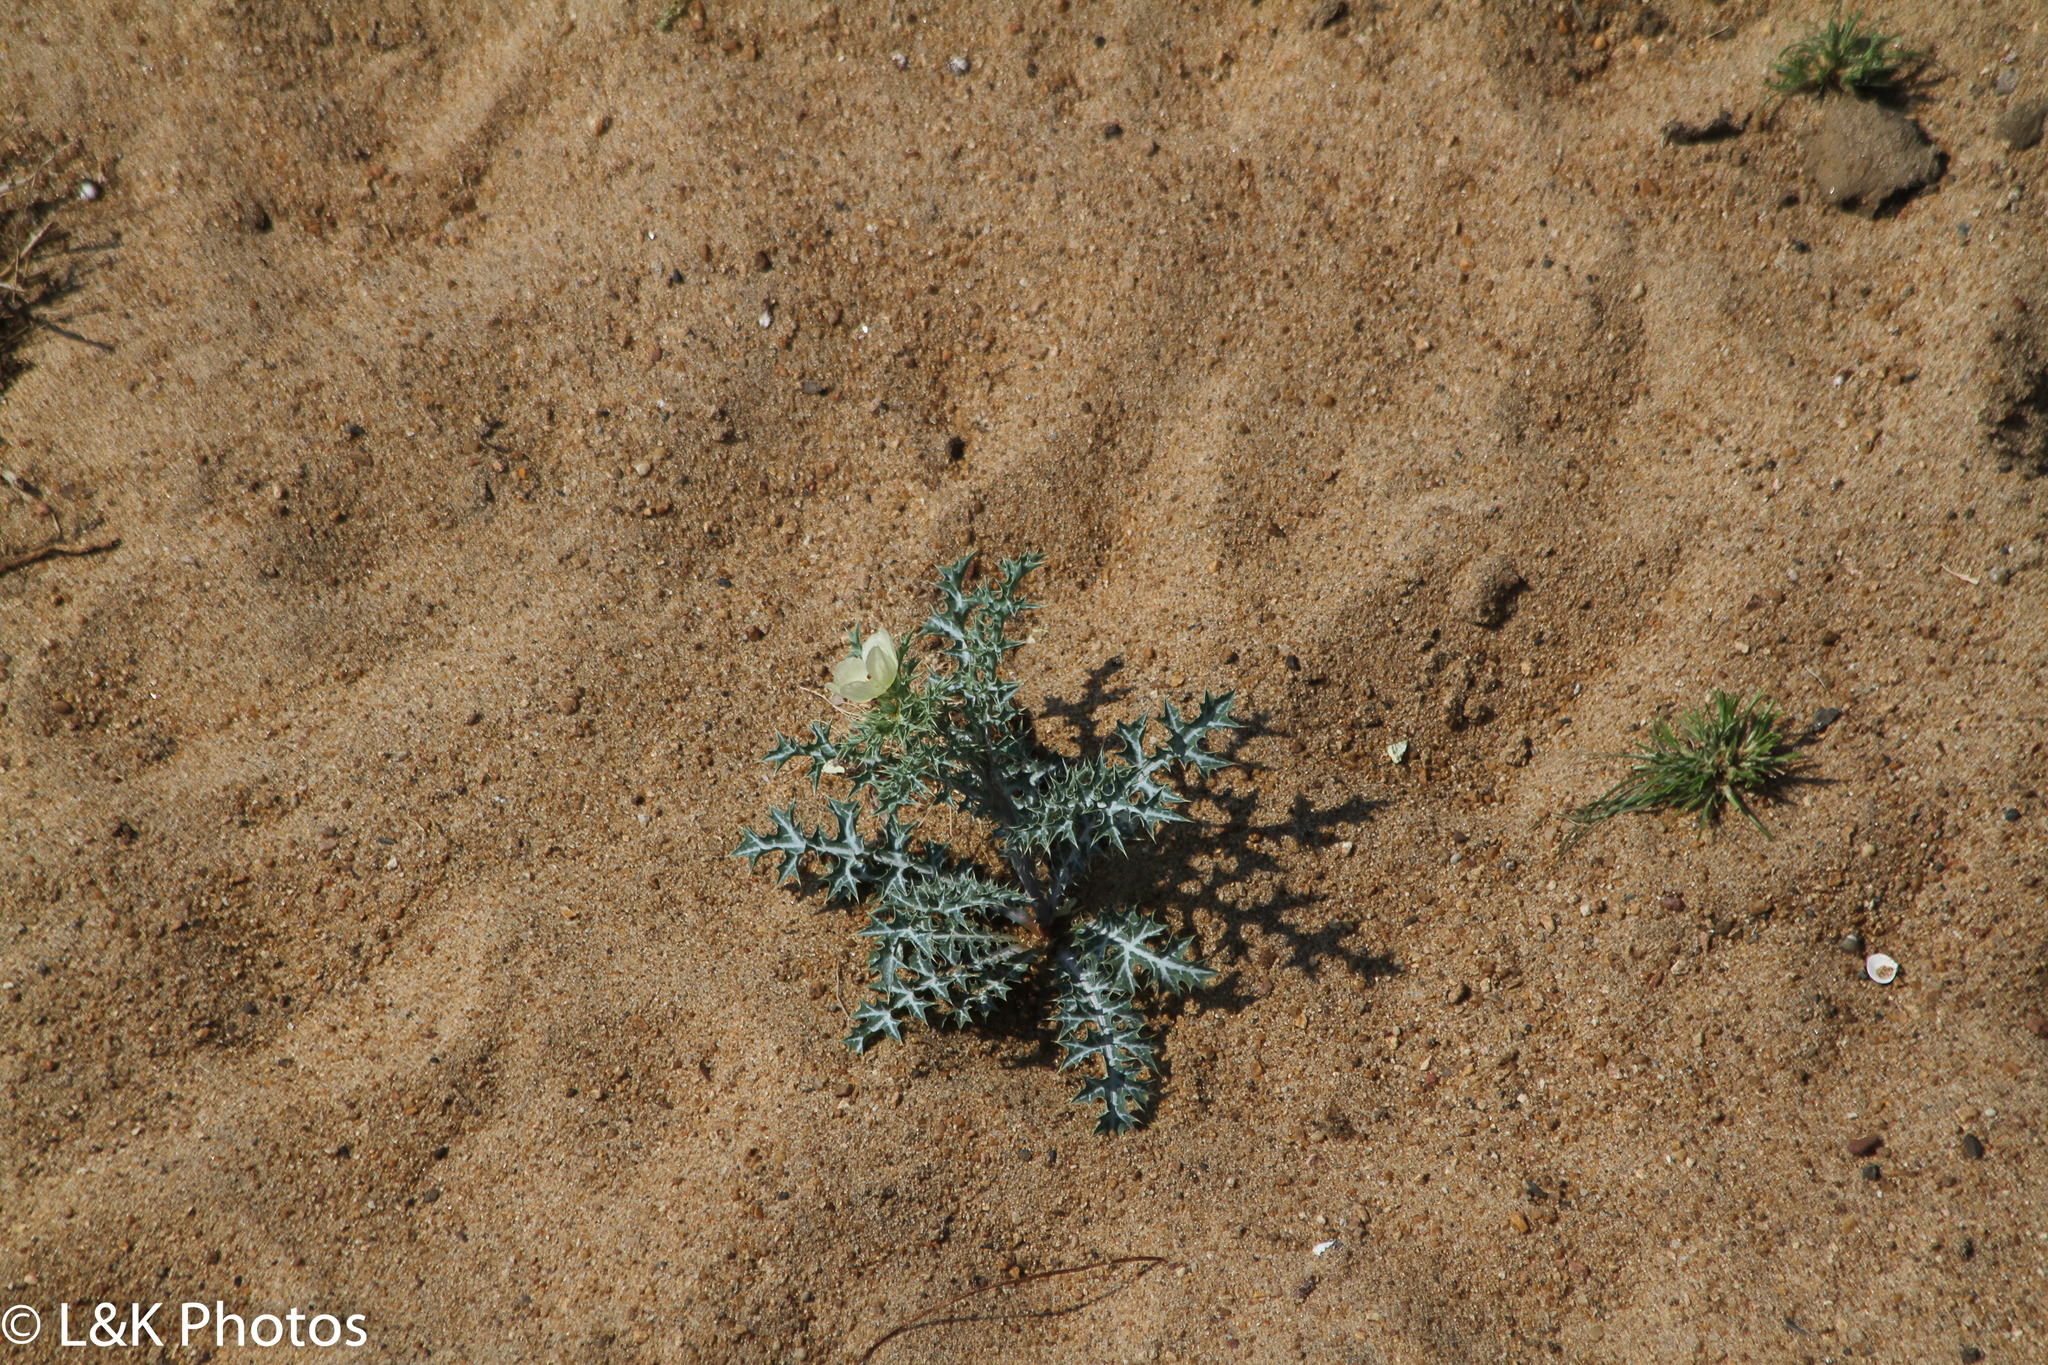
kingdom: Plantae
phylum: Tracheophyta
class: Magnoliopsida
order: Ranunculales
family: Papaveraceae
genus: Argemone
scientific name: Argemone ochroleuca
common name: White-flower mexican-poppy
